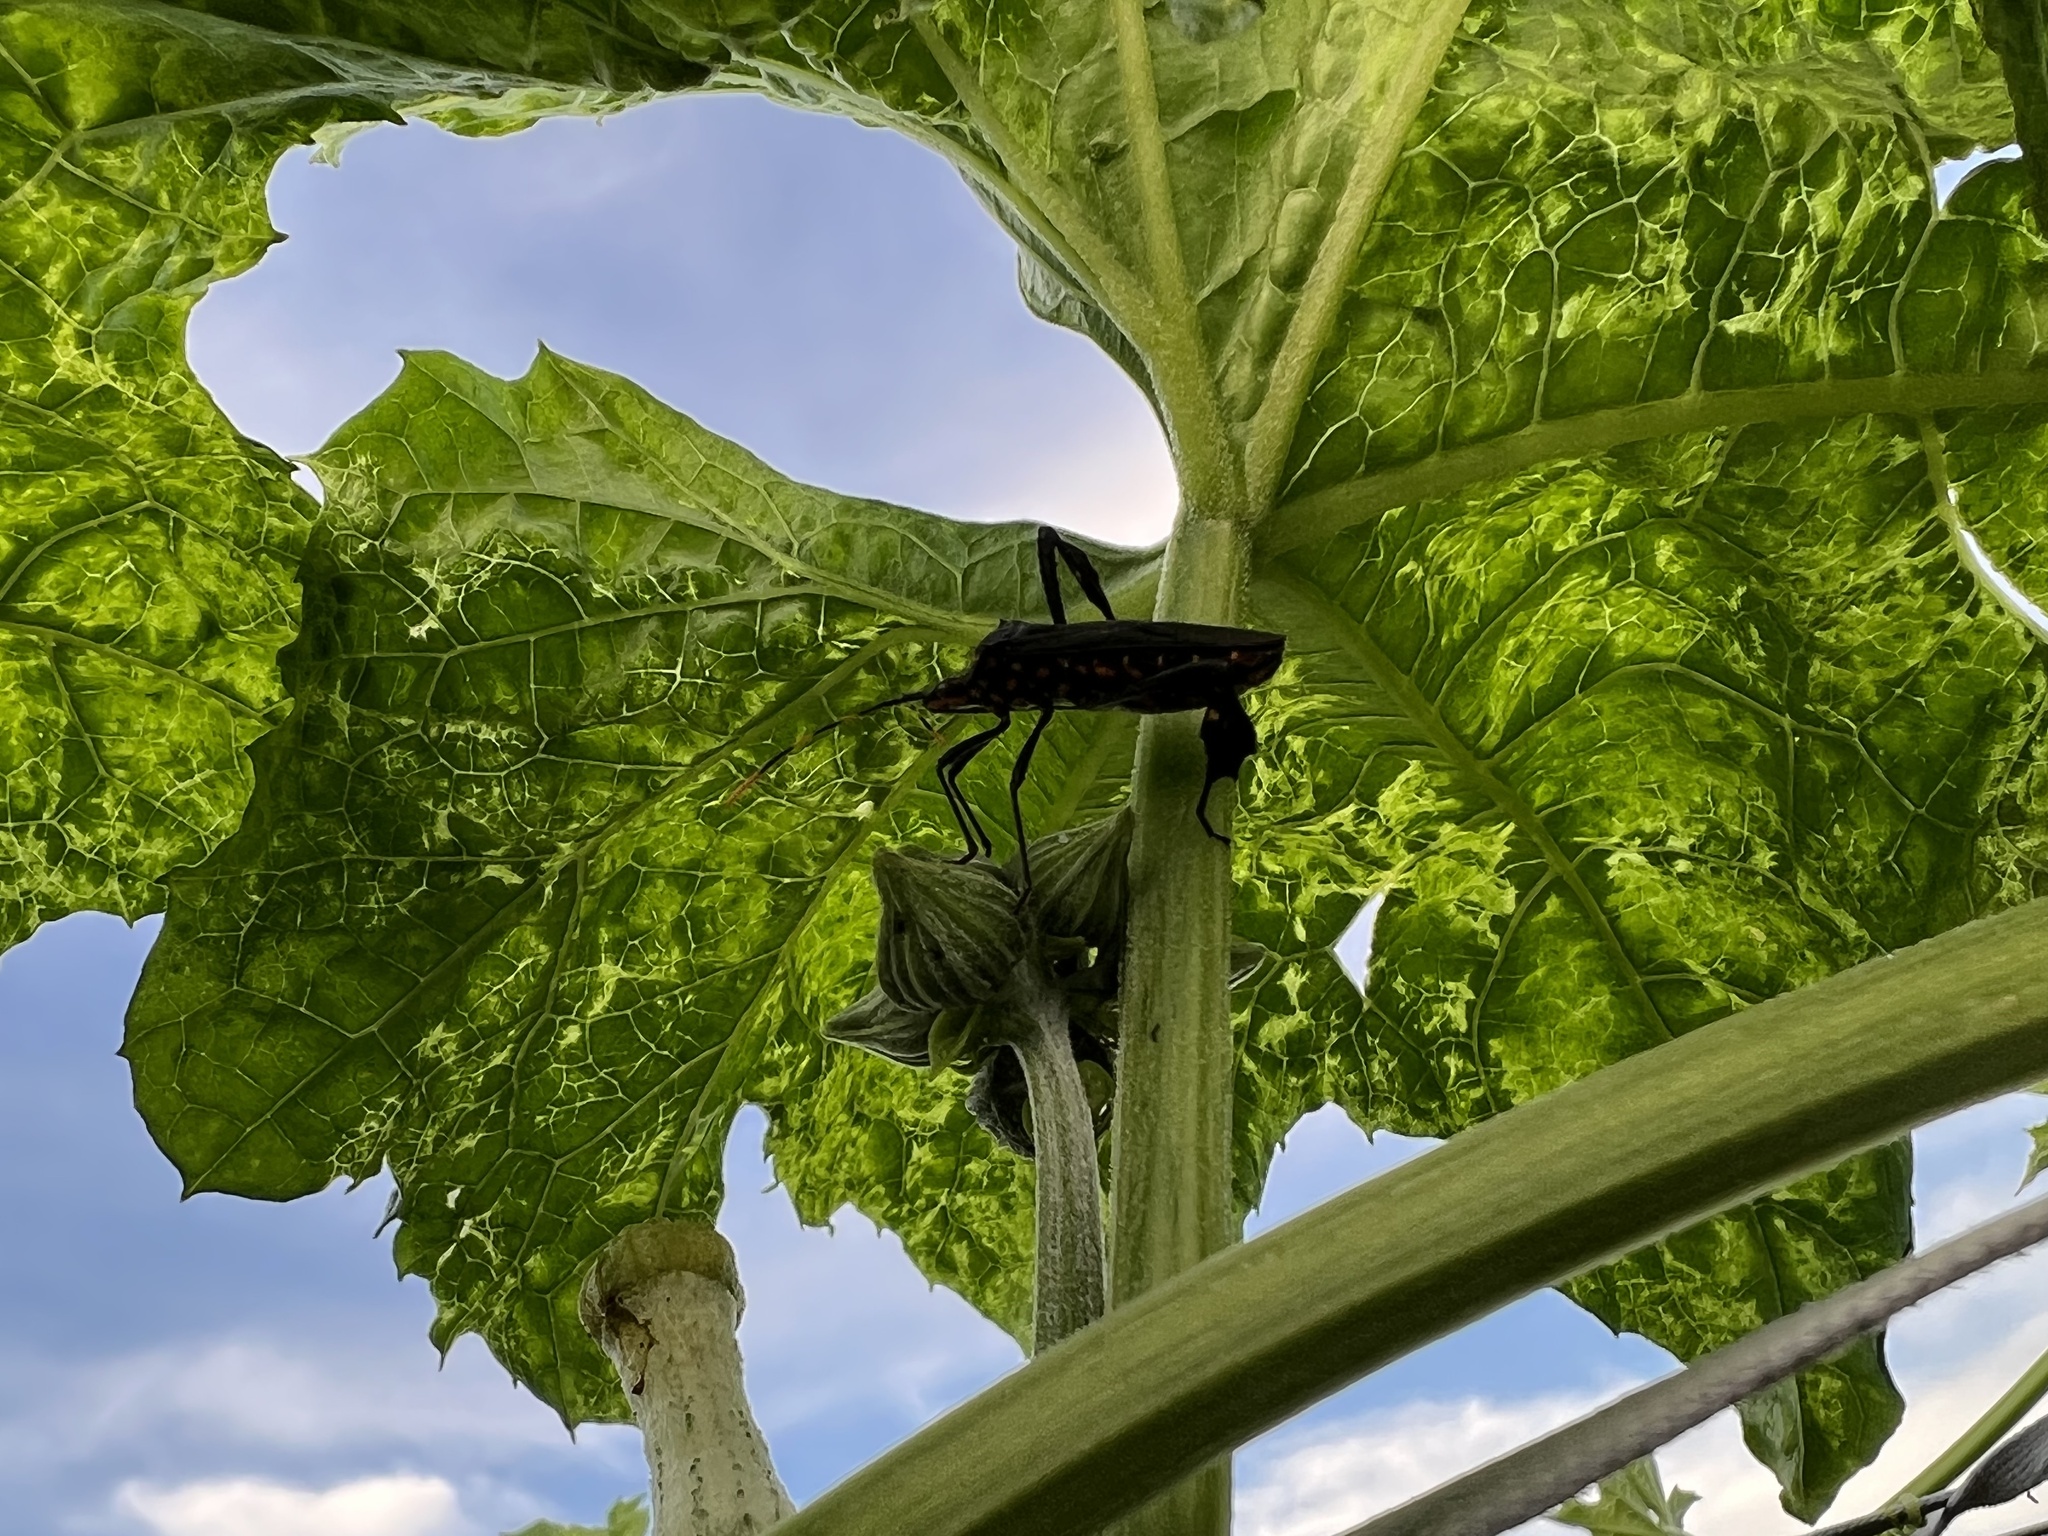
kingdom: Animalia
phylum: Arthropoda
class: Insecta
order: Hemiptera
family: Coreidae
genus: Leptoglossus
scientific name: Leptoglossus gonagra
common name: Citron bug
